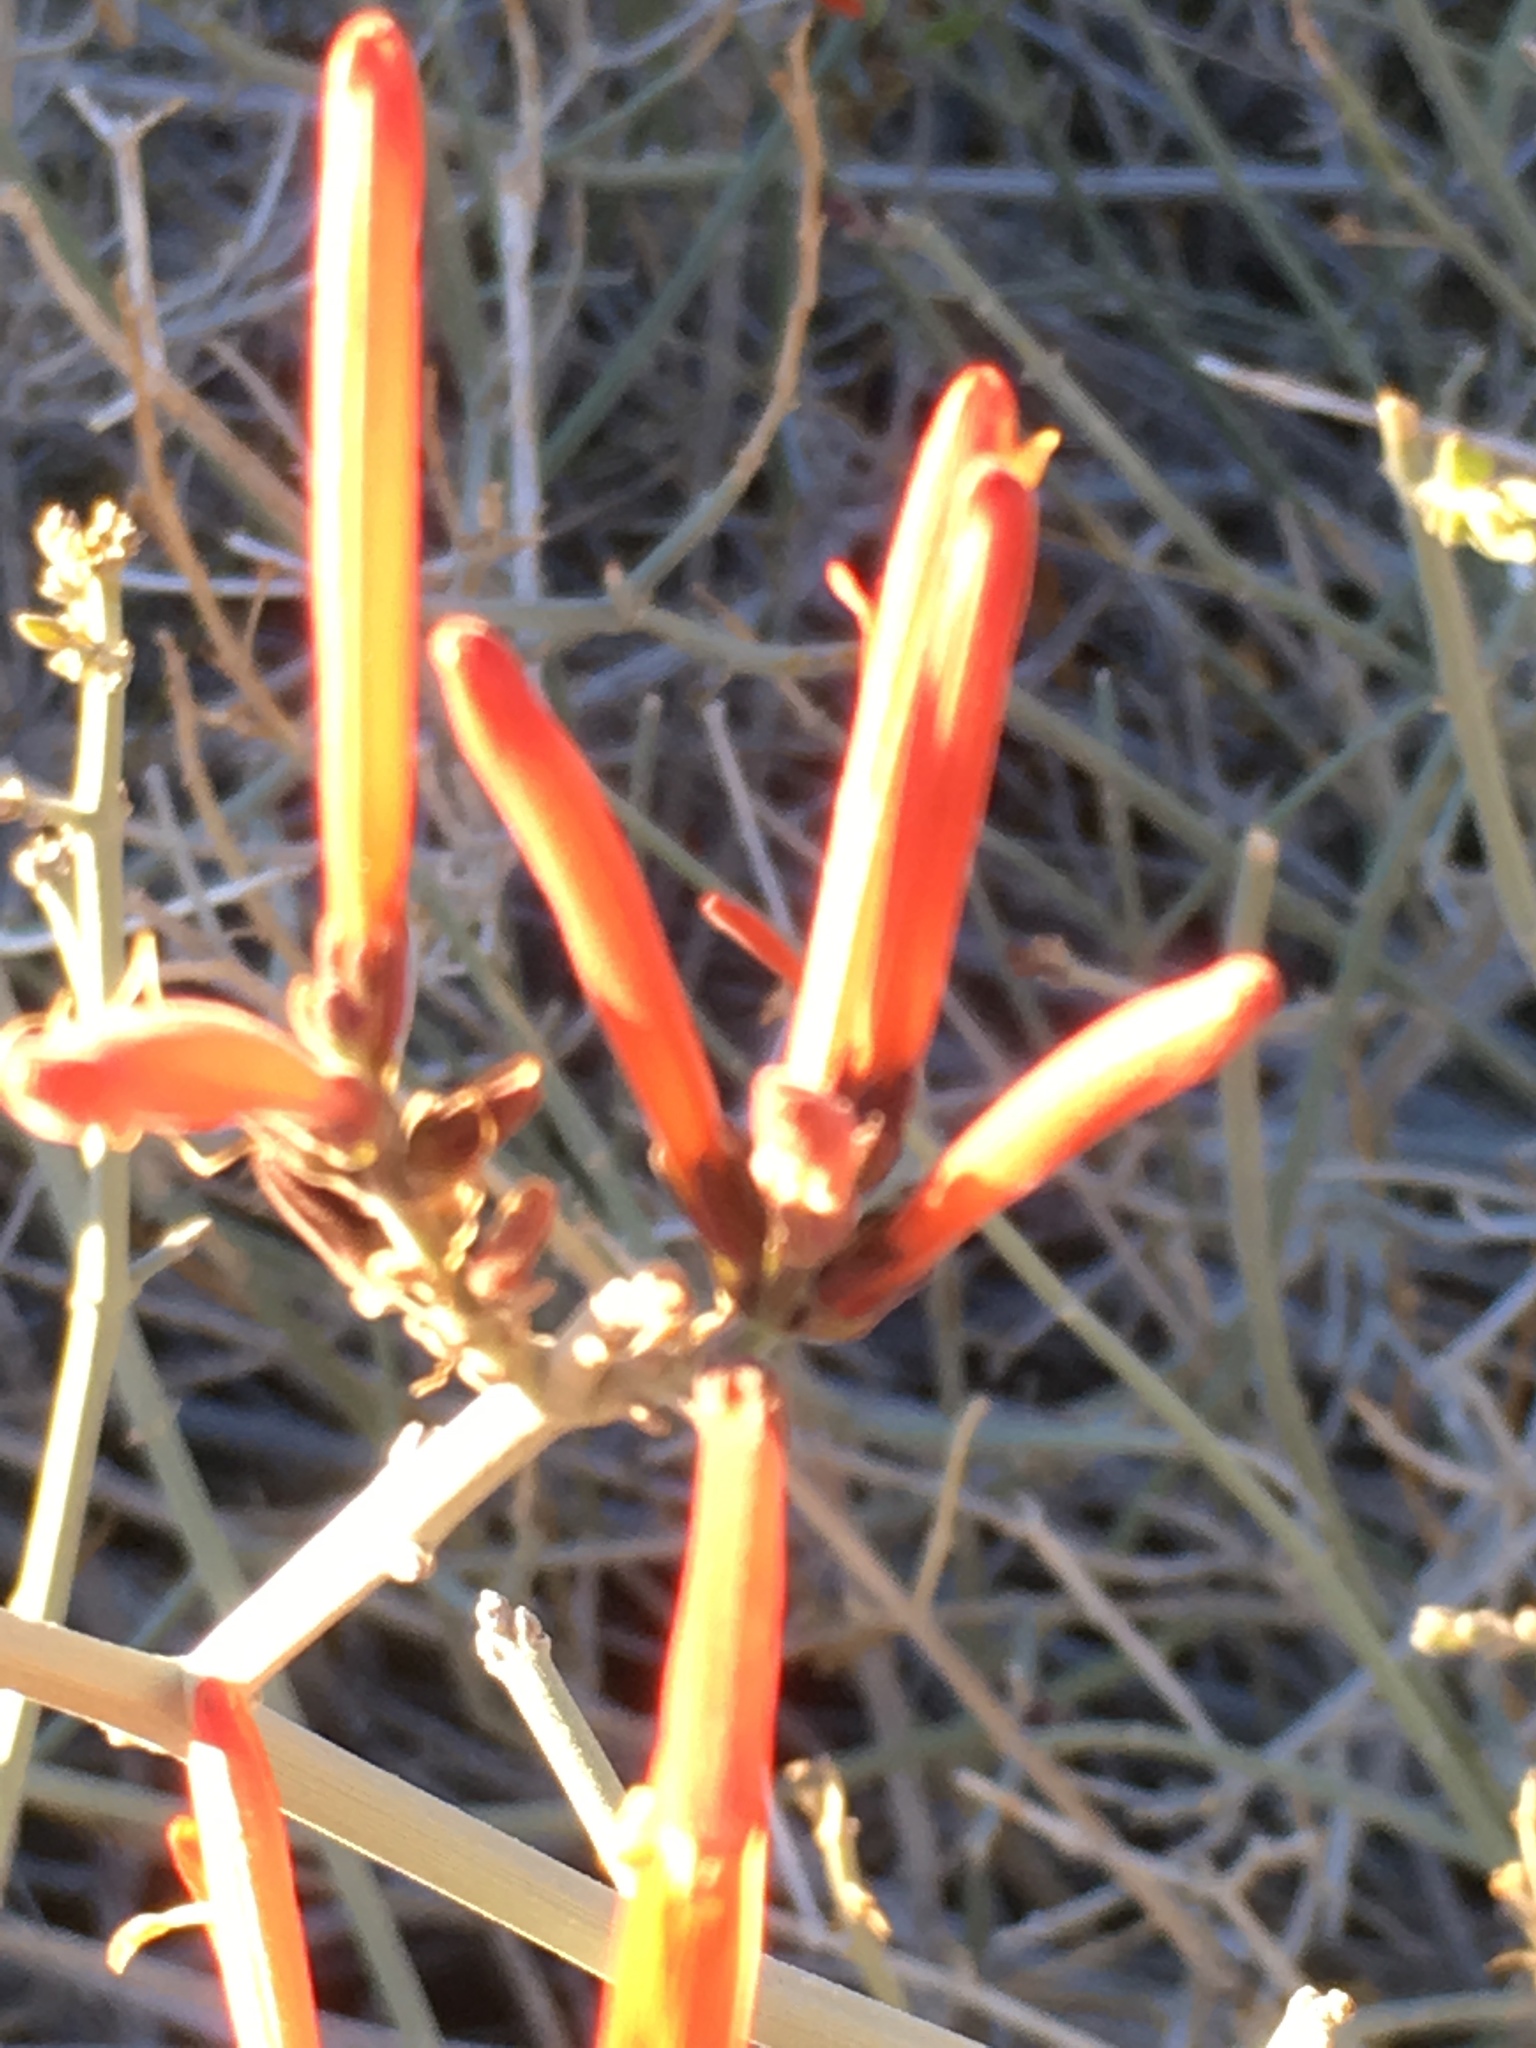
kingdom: Plantae
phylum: Tracheophyta
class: Magnoliopsida
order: Lamiales
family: Acanthaceae
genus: Justicia
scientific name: Justicia californica
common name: Chuparosa-honeysuckle
